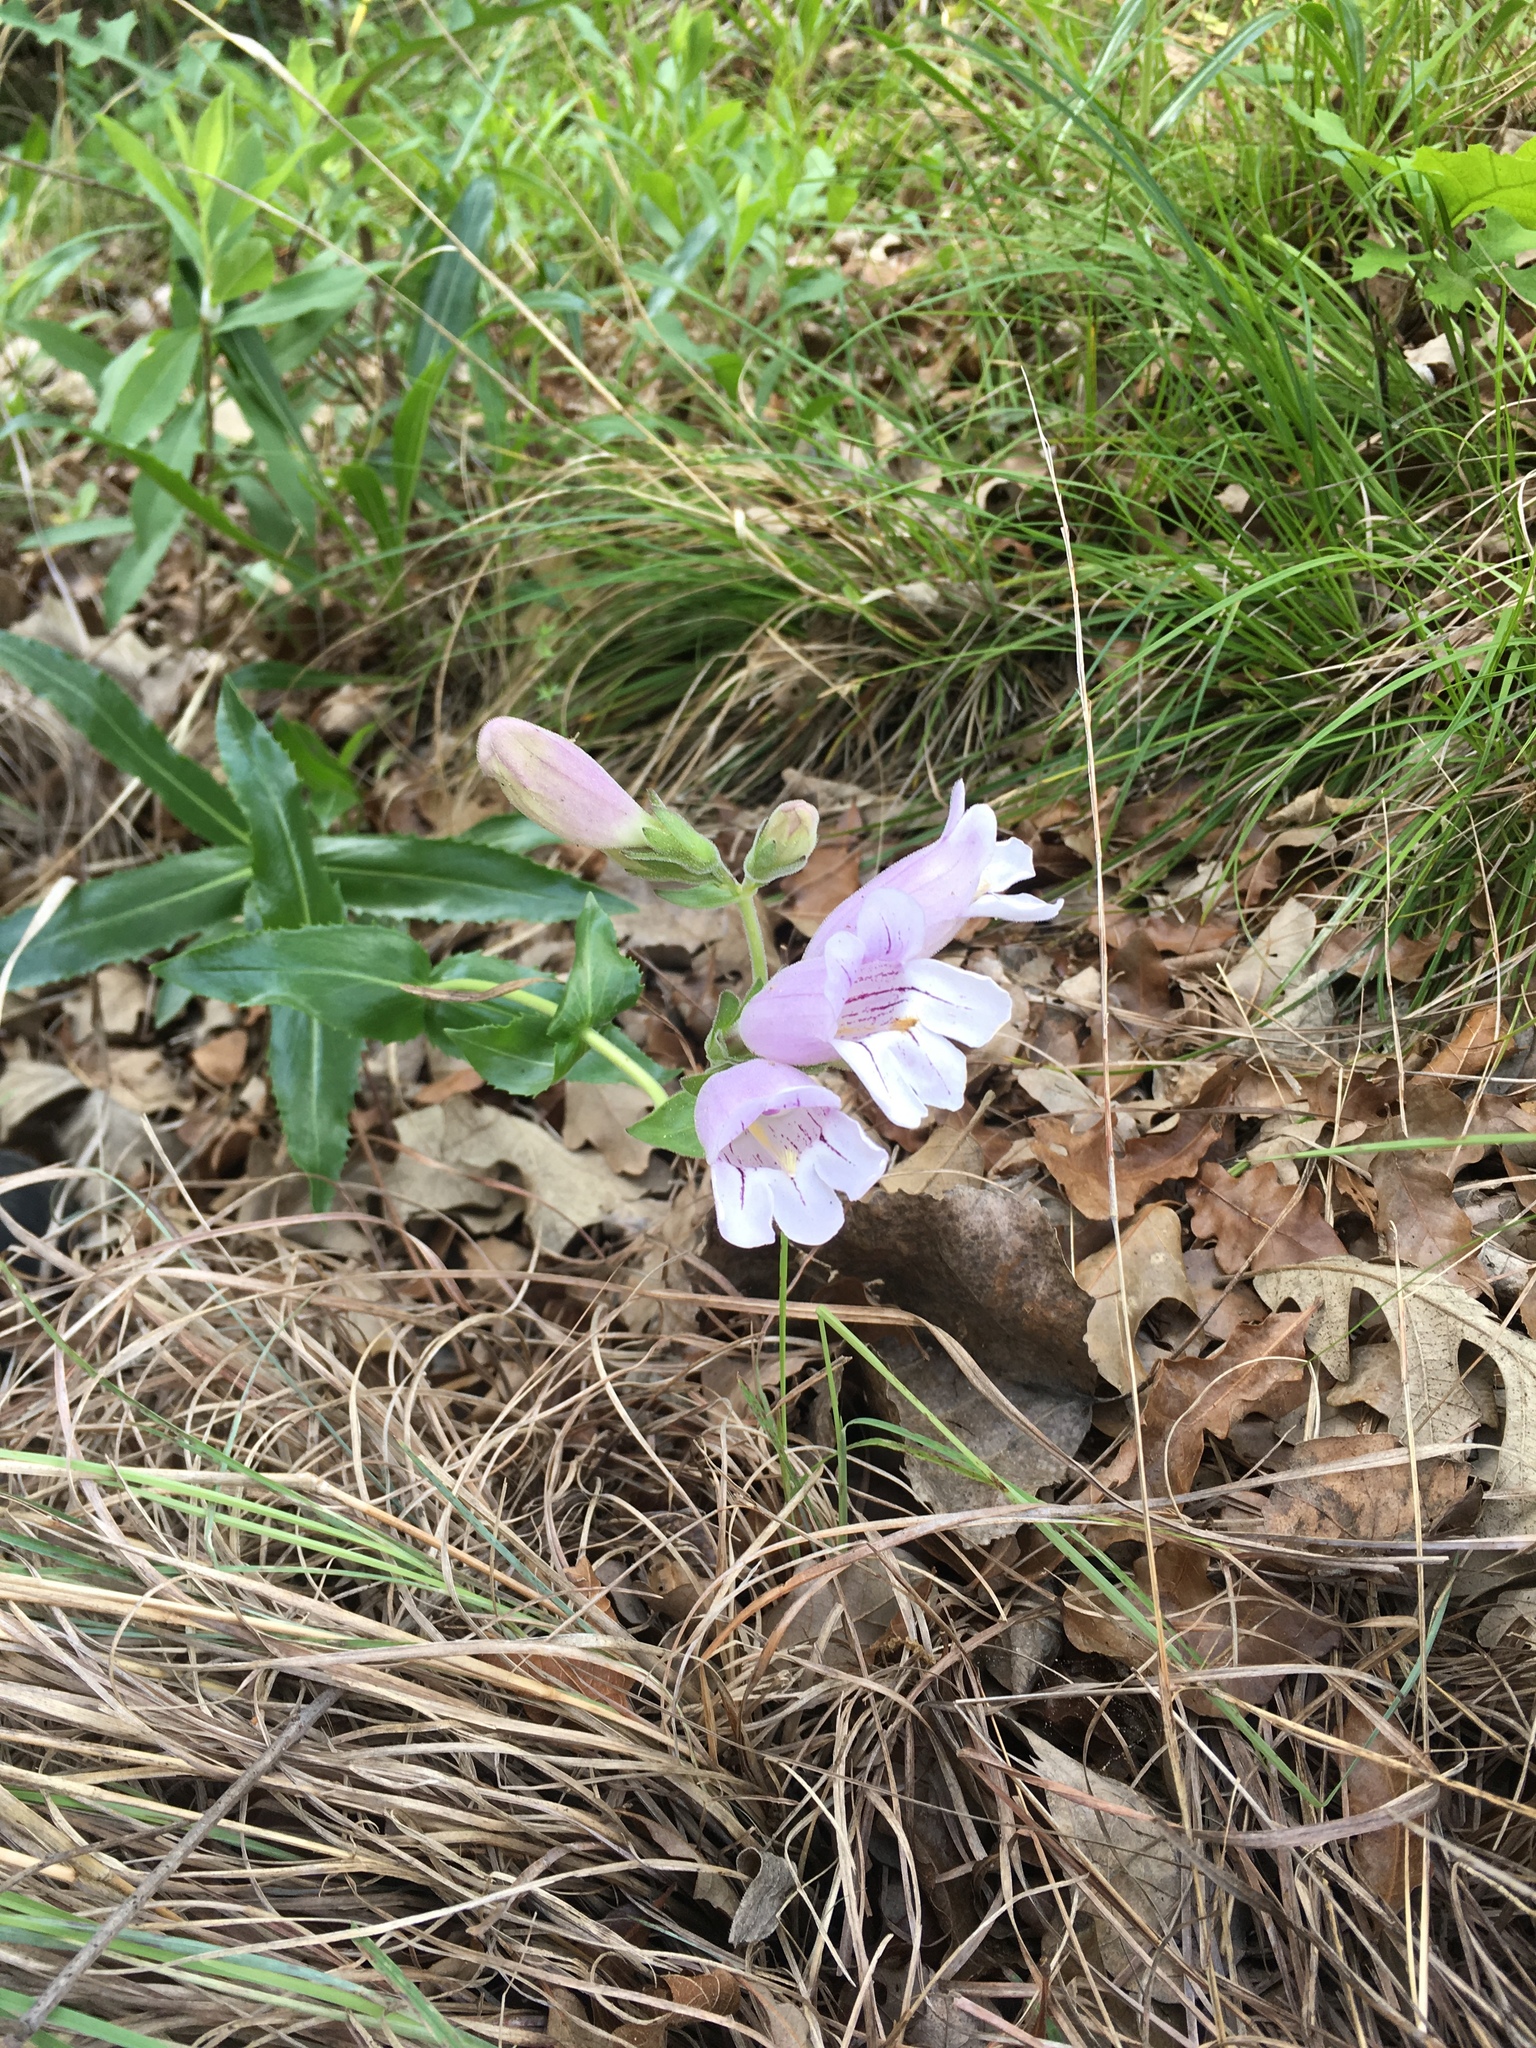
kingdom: Plantae
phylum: Tracheophyta
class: Magnoliopsida
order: Lamiales
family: Plantaginaceae
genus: Penstemon
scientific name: Penstemon cobaea
